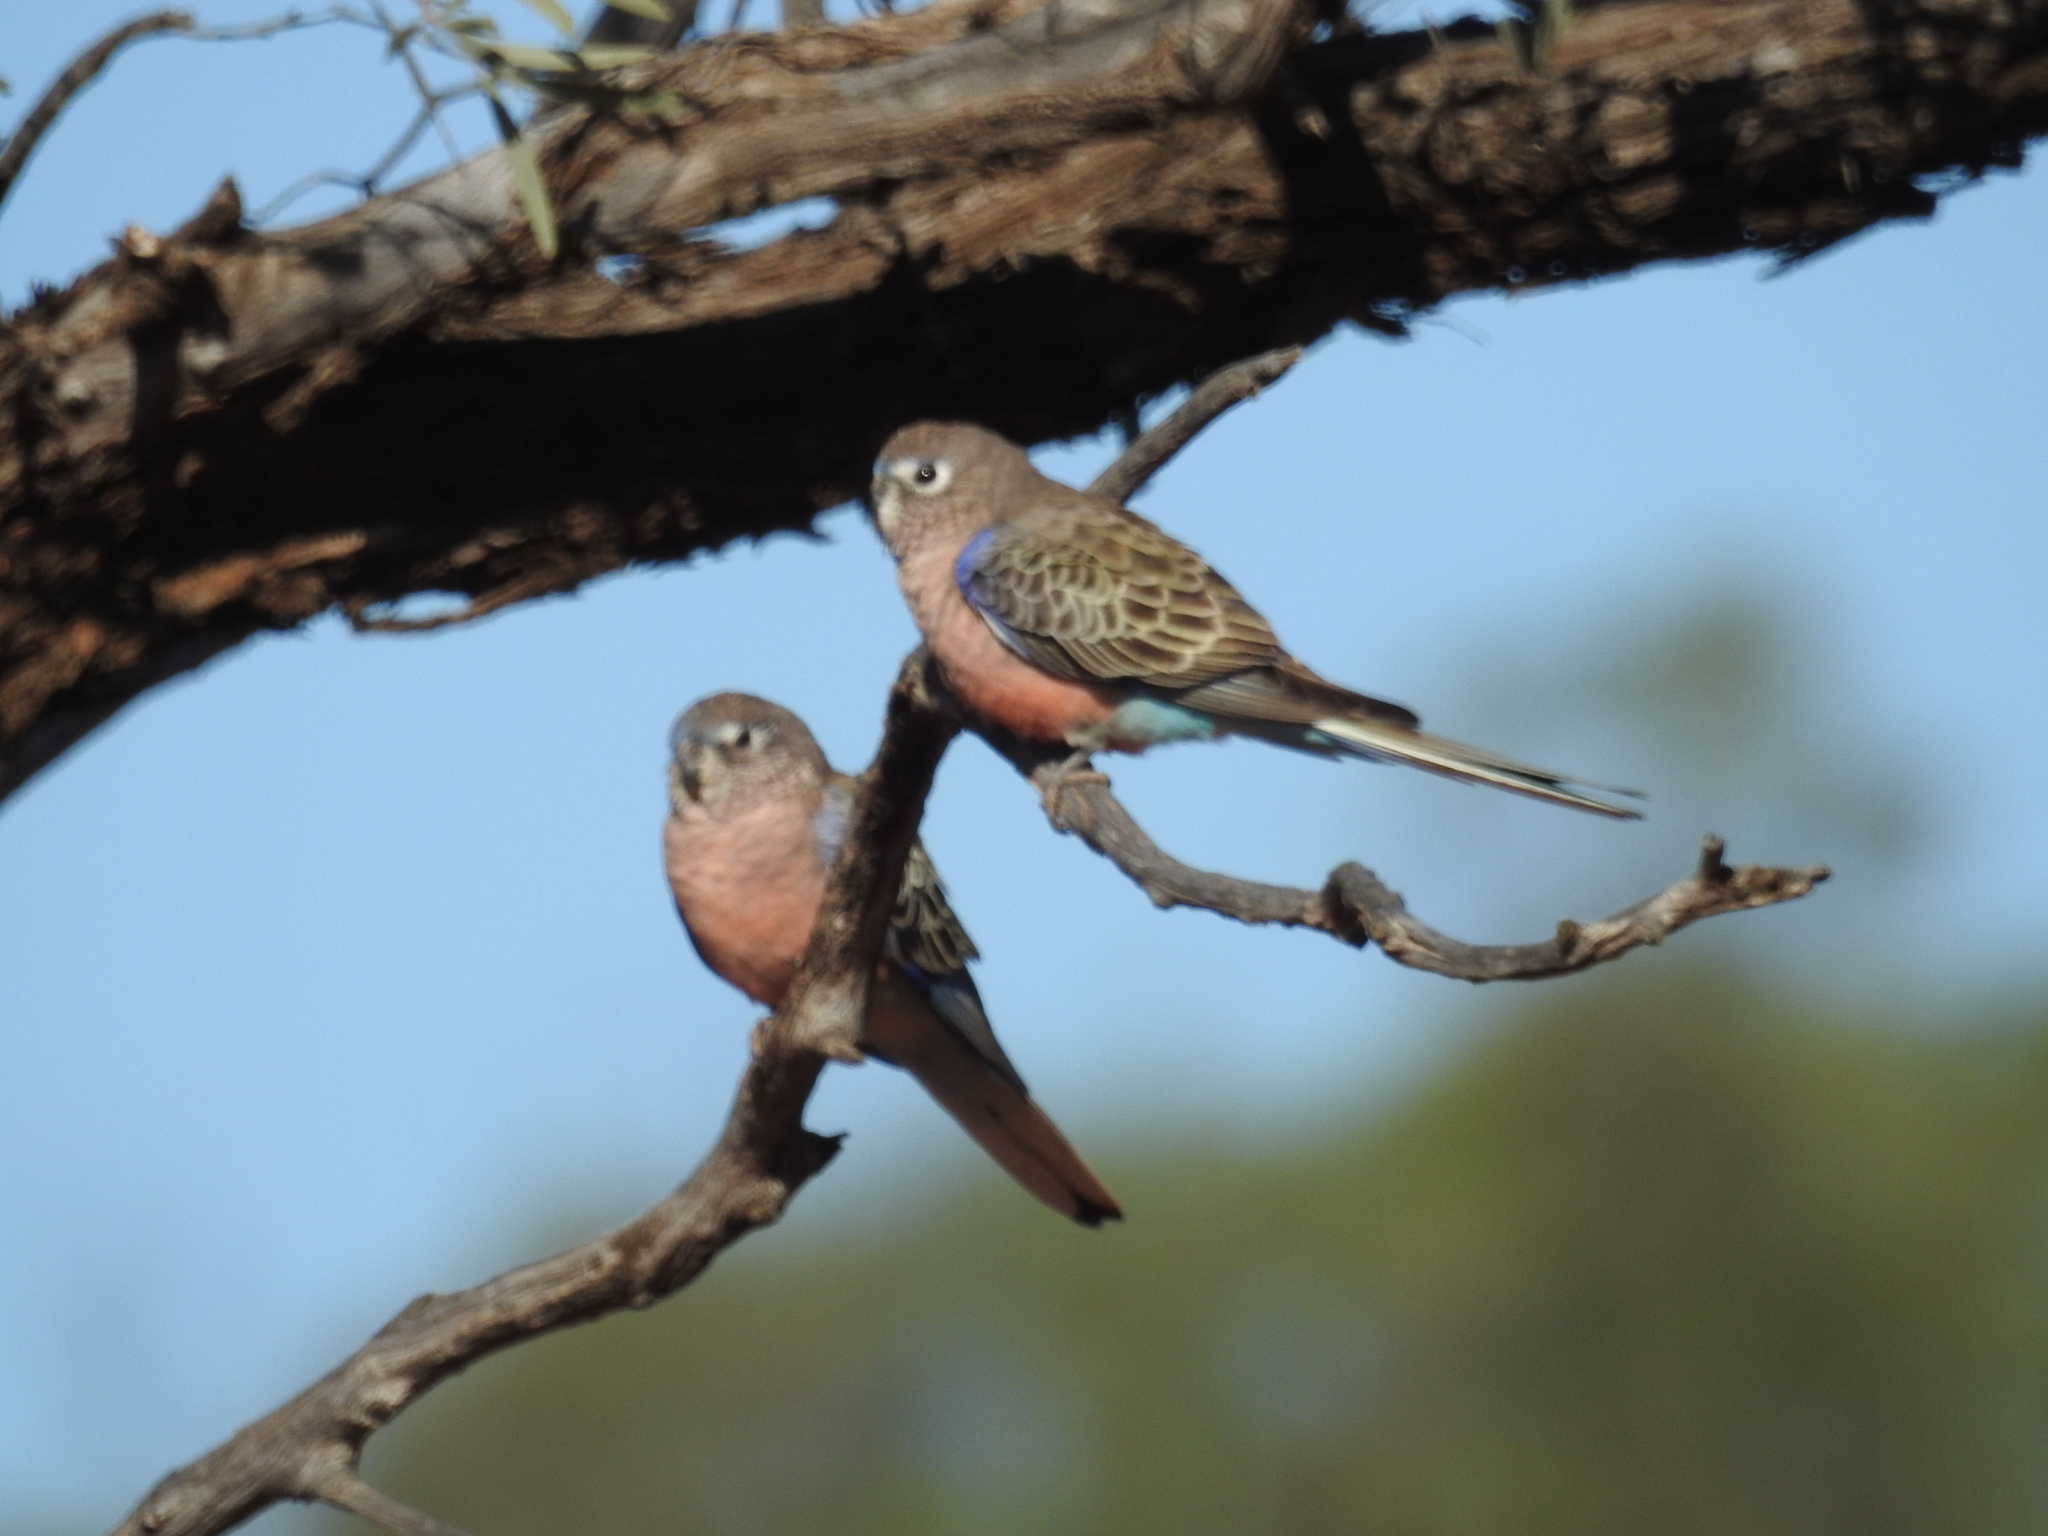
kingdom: Animalia
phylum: Chordata
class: Aves
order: Psittaciformes
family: Psittacidae
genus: Neopsephotus
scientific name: Neopsephotus bourkii
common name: Bourke's parrot
